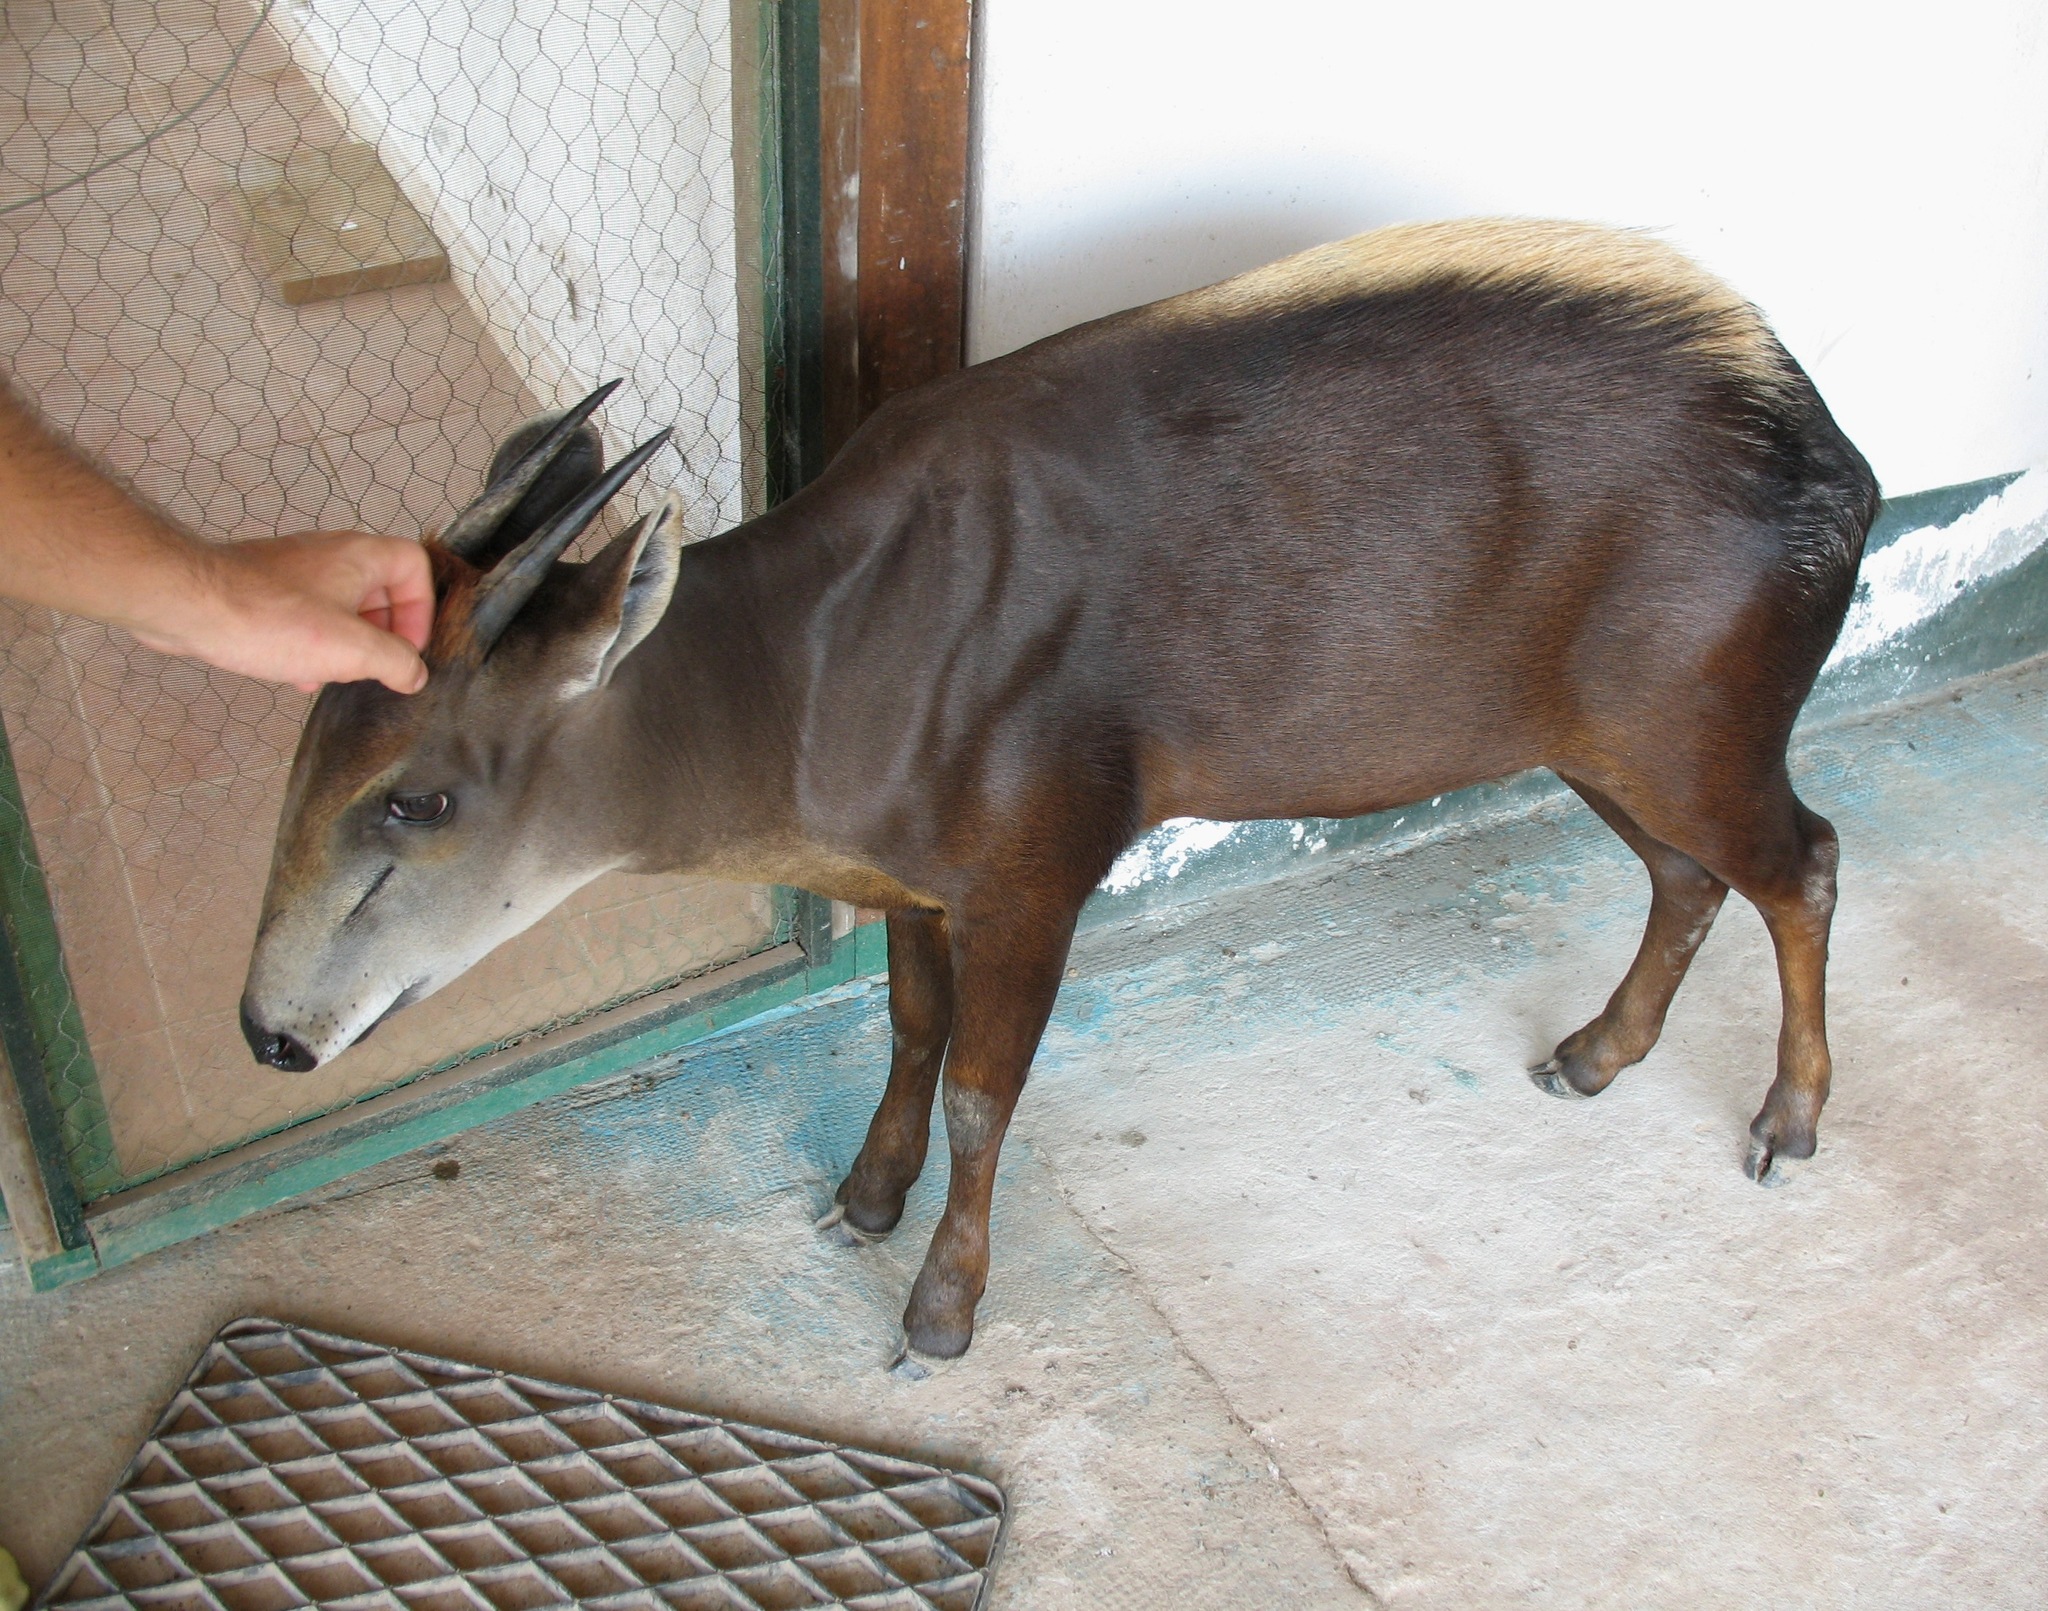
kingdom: Animalia
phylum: Chordata
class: Mammalia
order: Artiodactyla
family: Bovidae
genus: Cephalophus
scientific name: Cephalophus silvicultor
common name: Yellow-backed duiker
